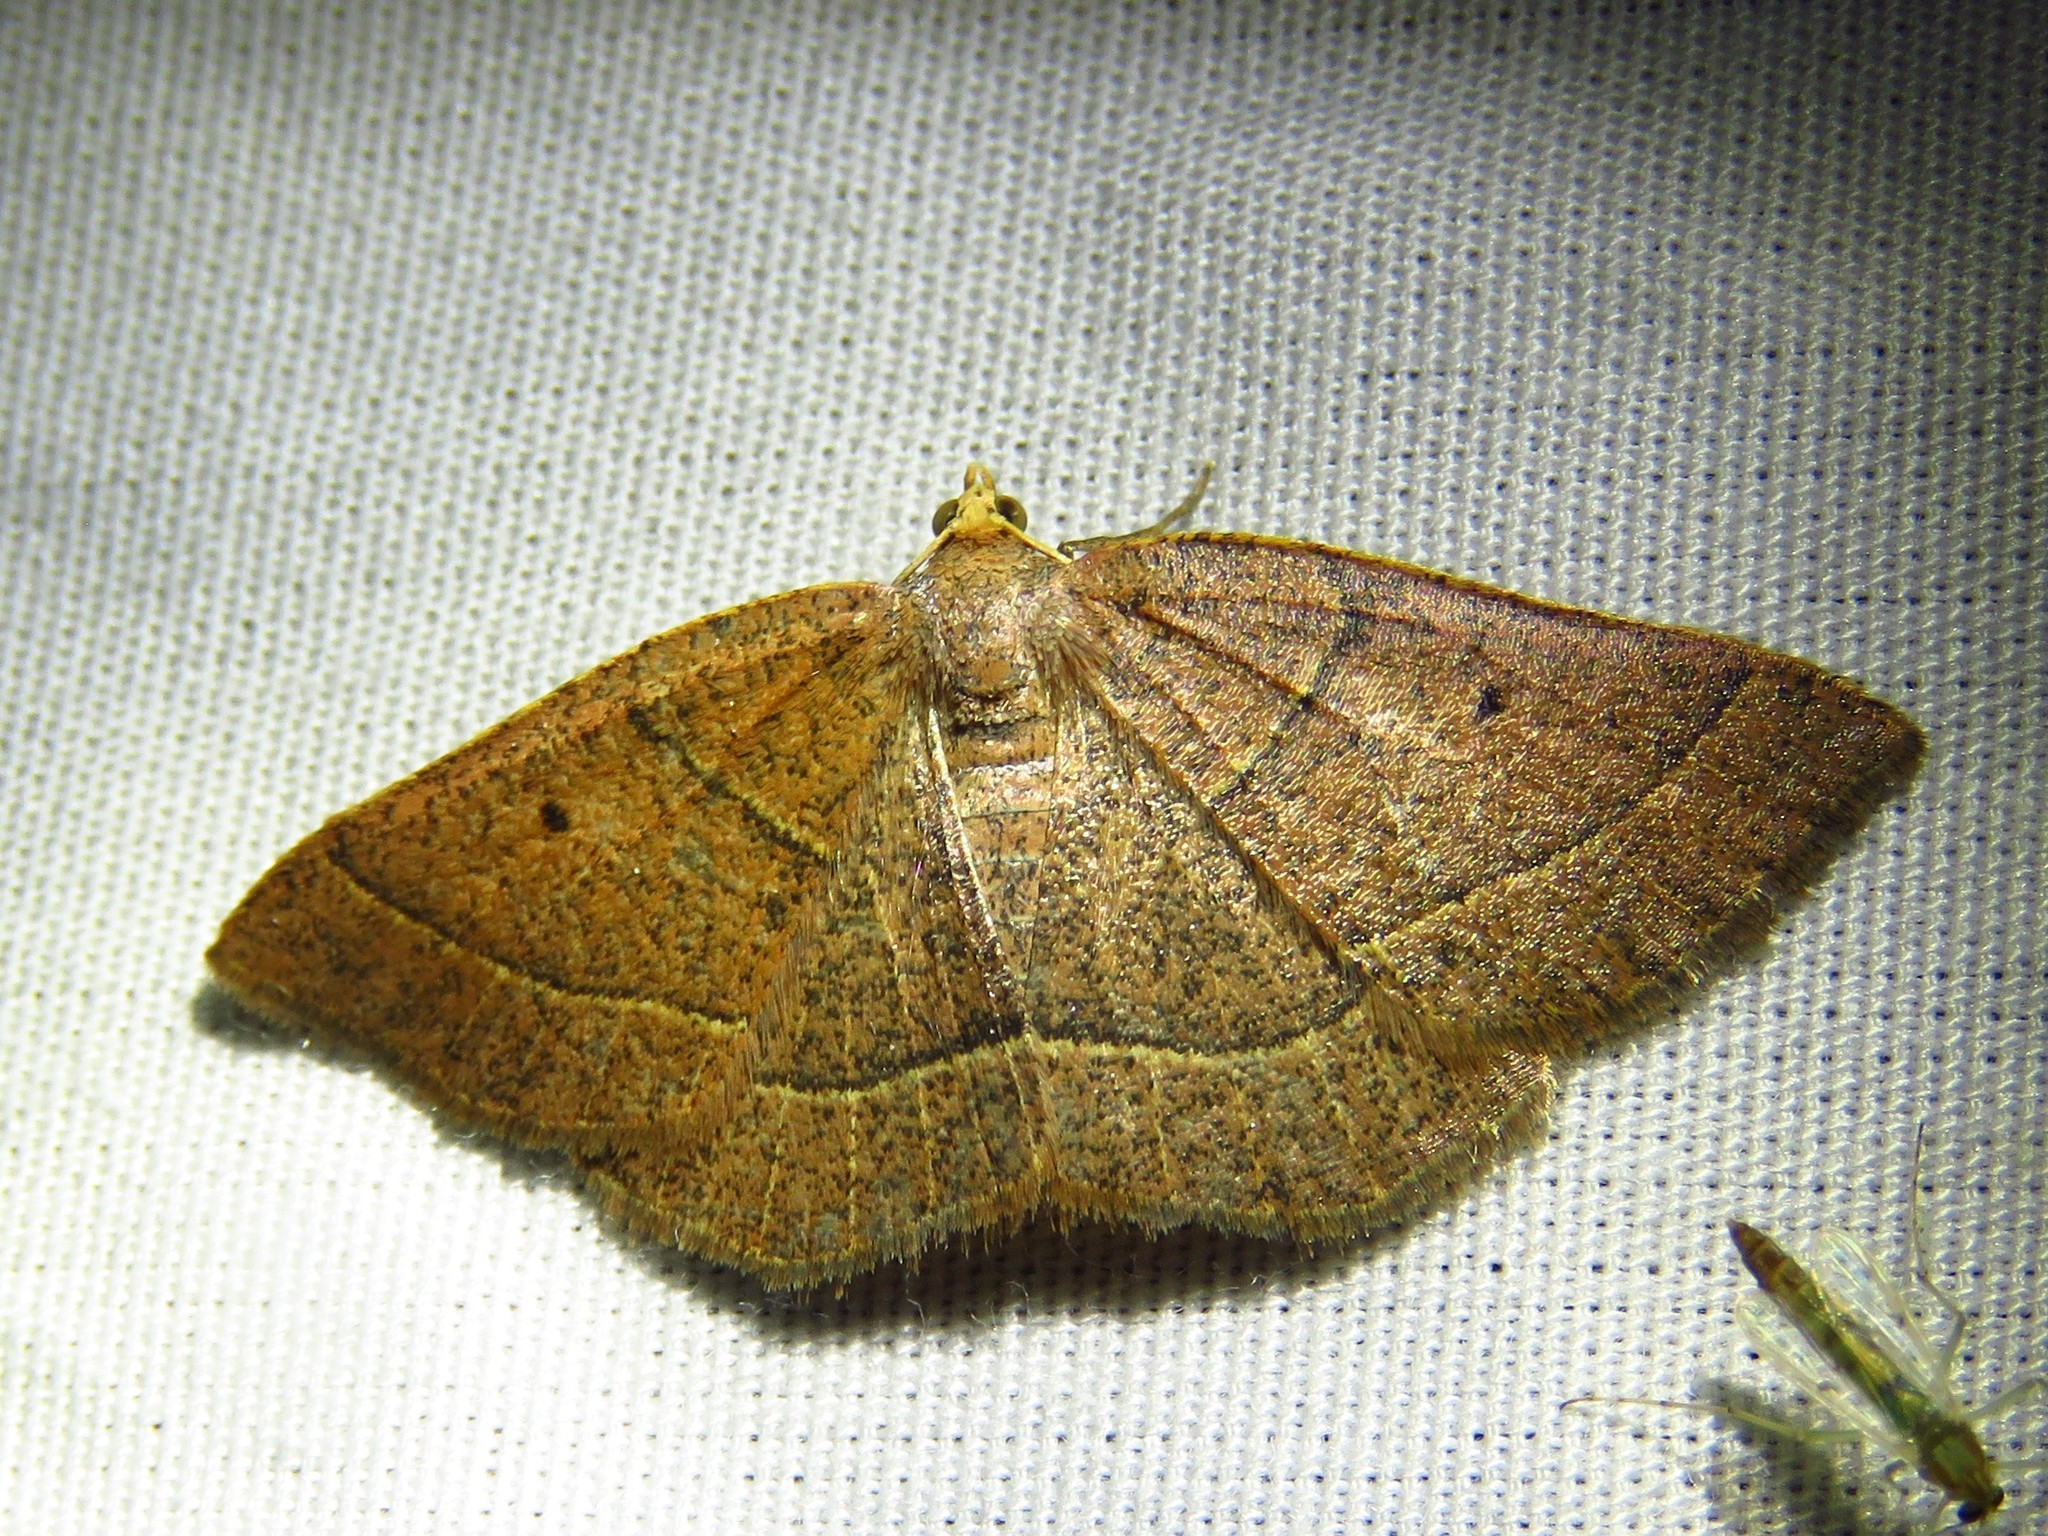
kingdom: Animalia
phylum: Arthropoda
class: Insecta
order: Lepidoptera
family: Geometridae
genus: Episemasia
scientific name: Episemasia cervinaria
